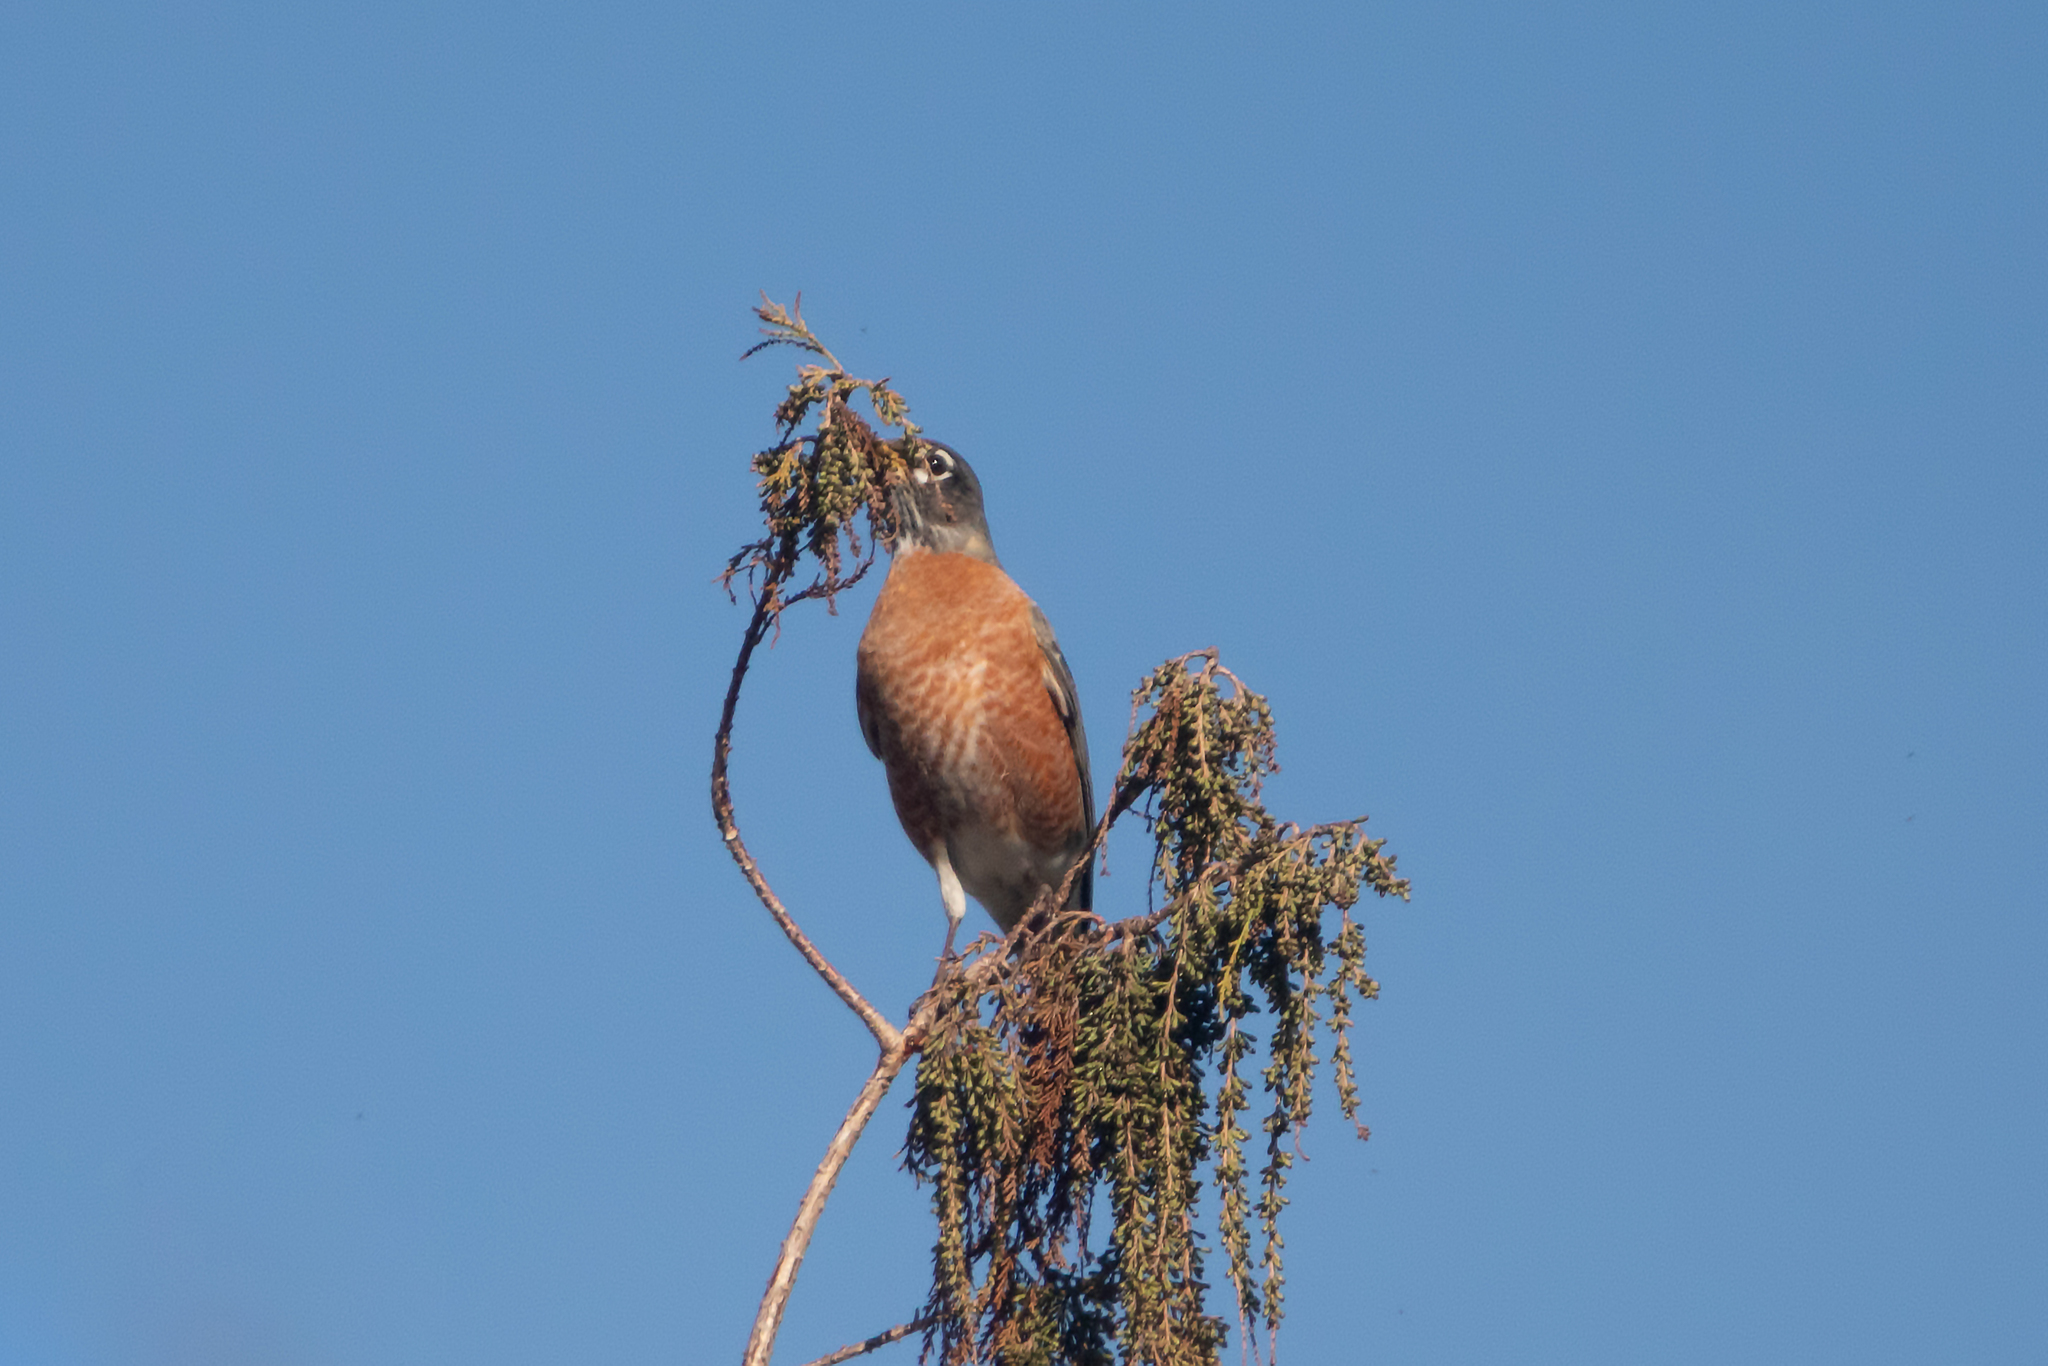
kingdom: Animalia
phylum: Chordata
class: Aves
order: Passeriformes
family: Turdidae
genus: Turdus
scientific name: Turdus migratorius
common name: American robin
